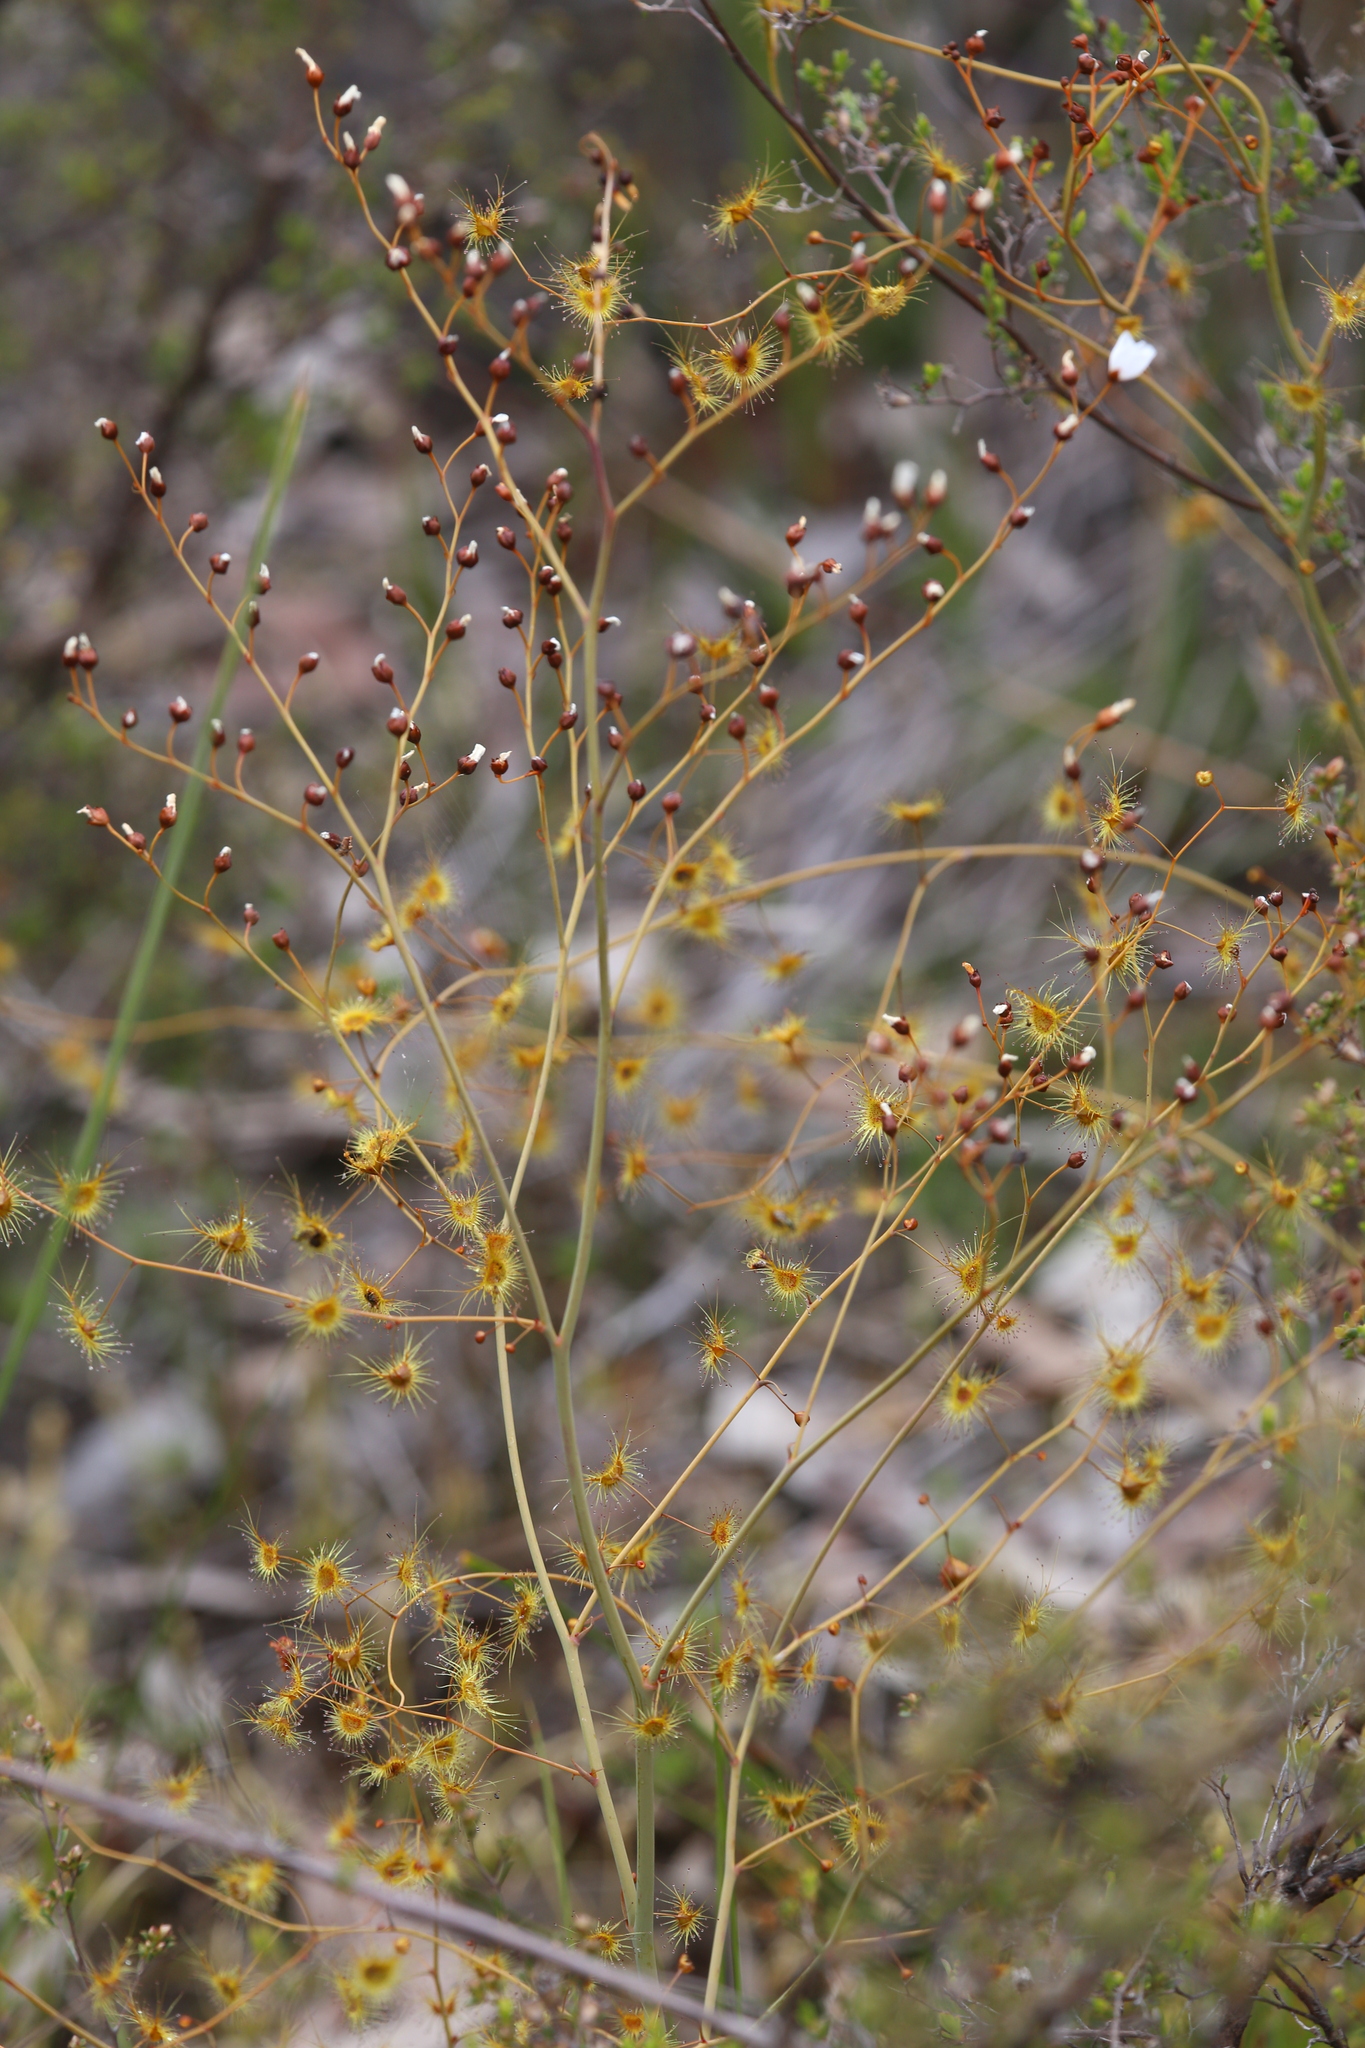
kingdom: Plantae
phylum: Tracheophyta
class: Magnoliopsida
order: Caryophyllales
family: Droseraceae
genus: Drosera
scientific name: Drosera gigantea
